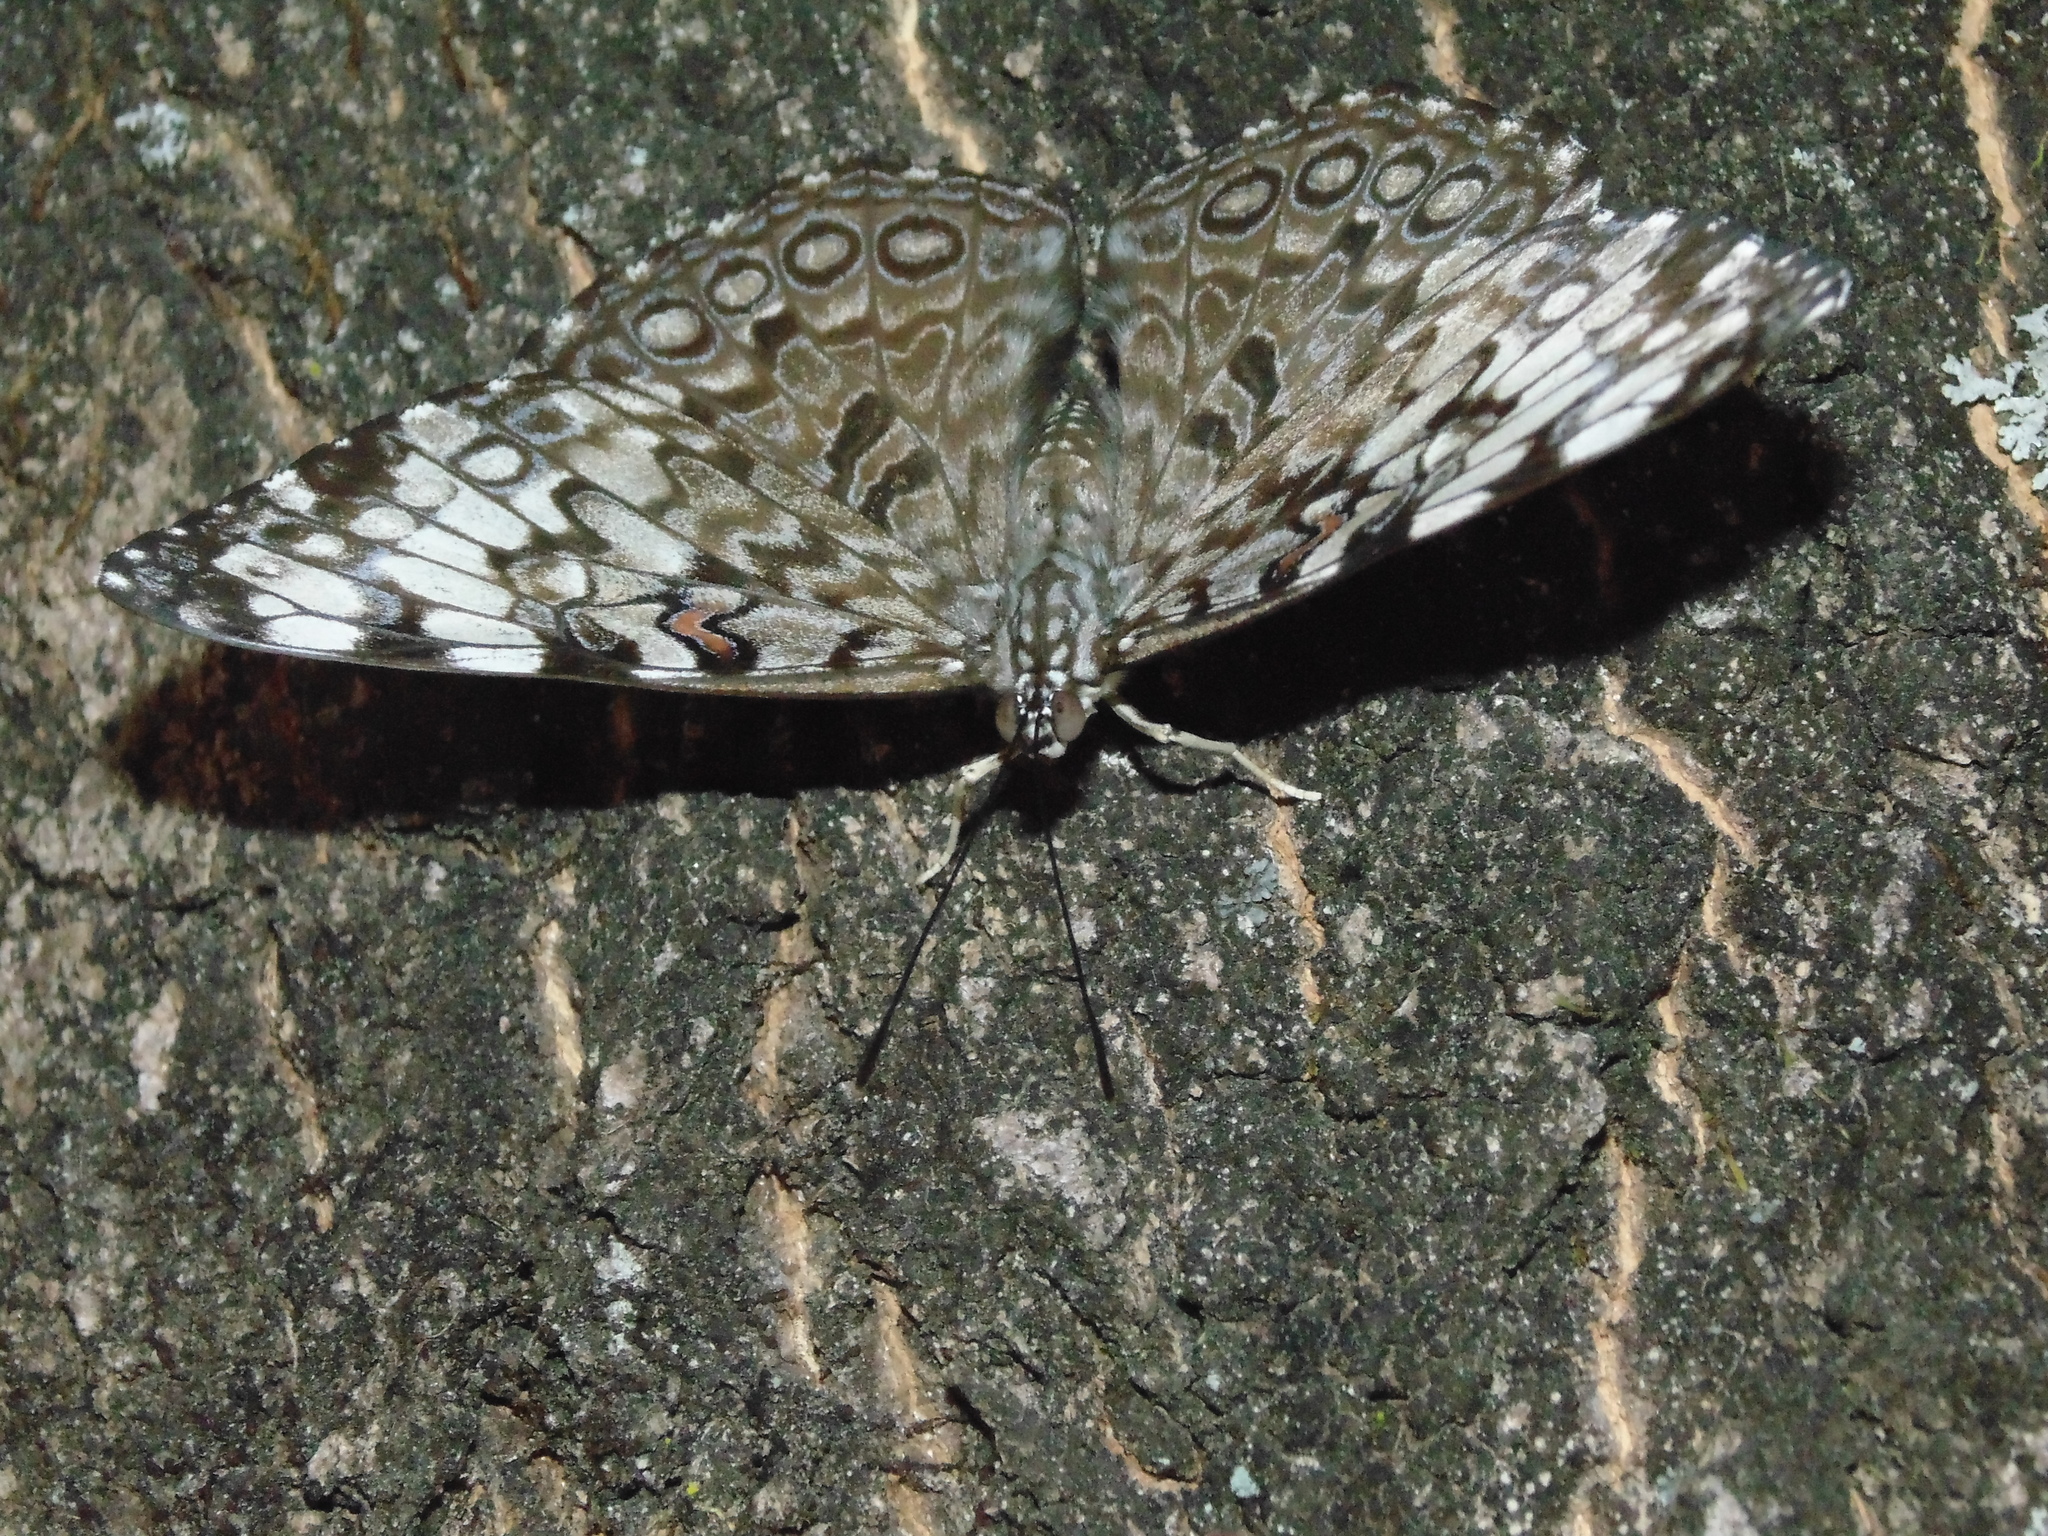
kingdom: Animalia
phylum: Arthropoda
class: Insecta
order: Lepidoptera
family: Nymphalidae
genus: Hamadryas
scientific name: Hamadryas guatemalena
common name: Guatemalan cracker
